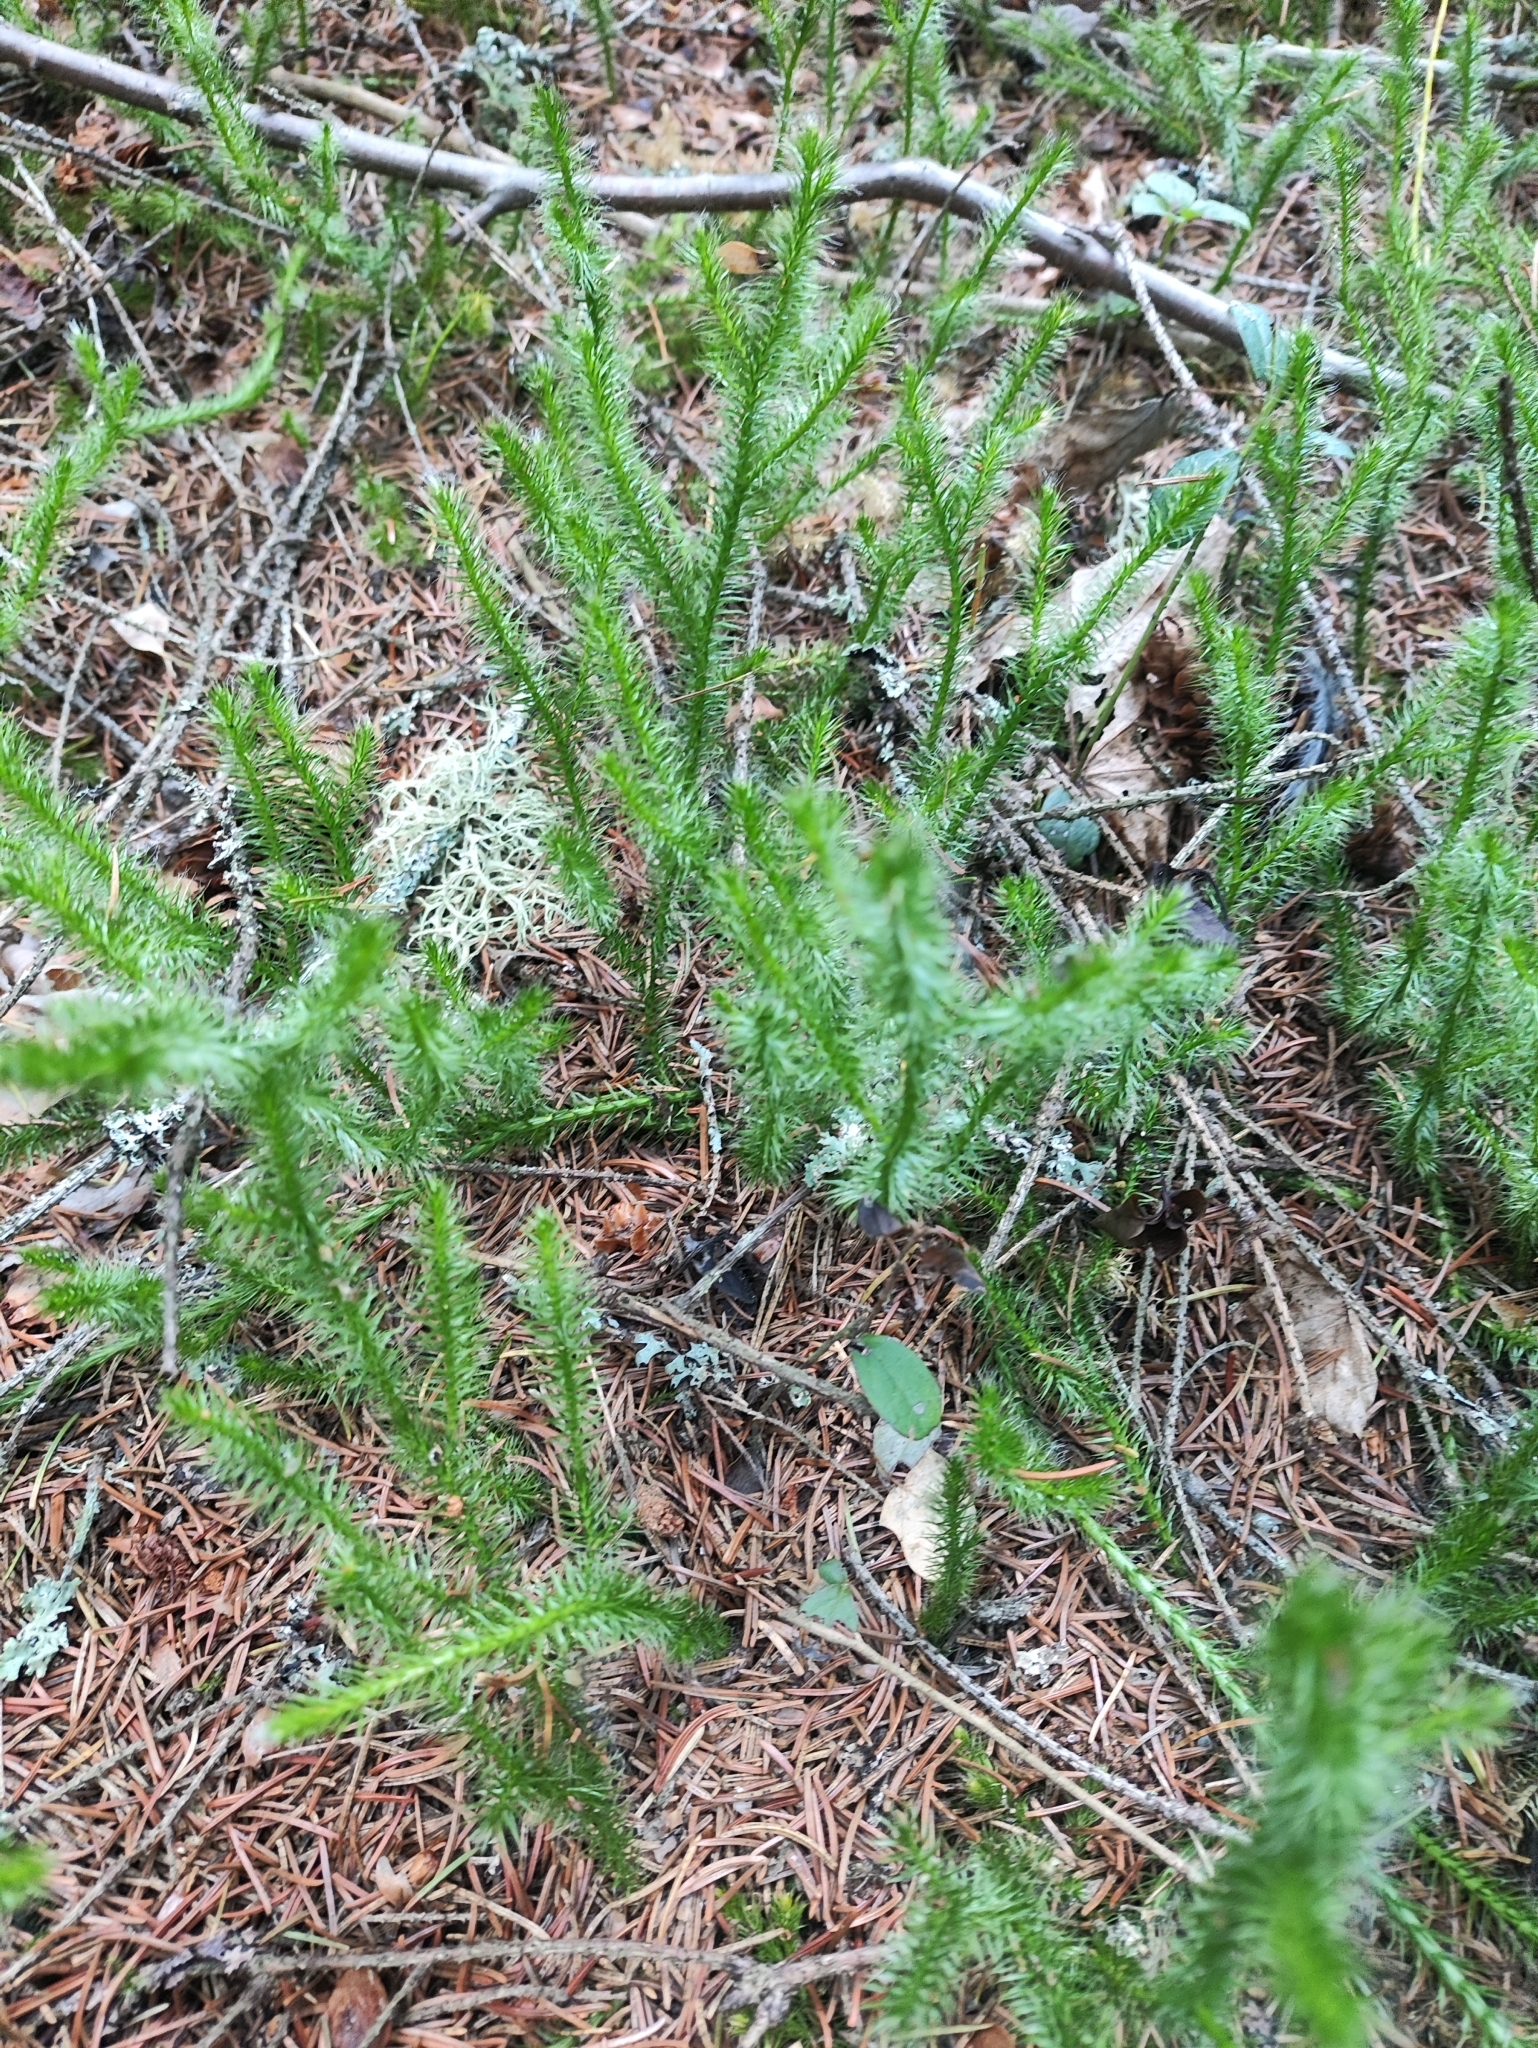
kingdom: Plantae
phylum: Tracheophyta
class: Lycopodiopsida
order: Lycopodiales
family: Lycopodiaceae
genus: Lycopodium
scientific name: Lycopodium clavatum
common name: Stag's-horn clubmoss
